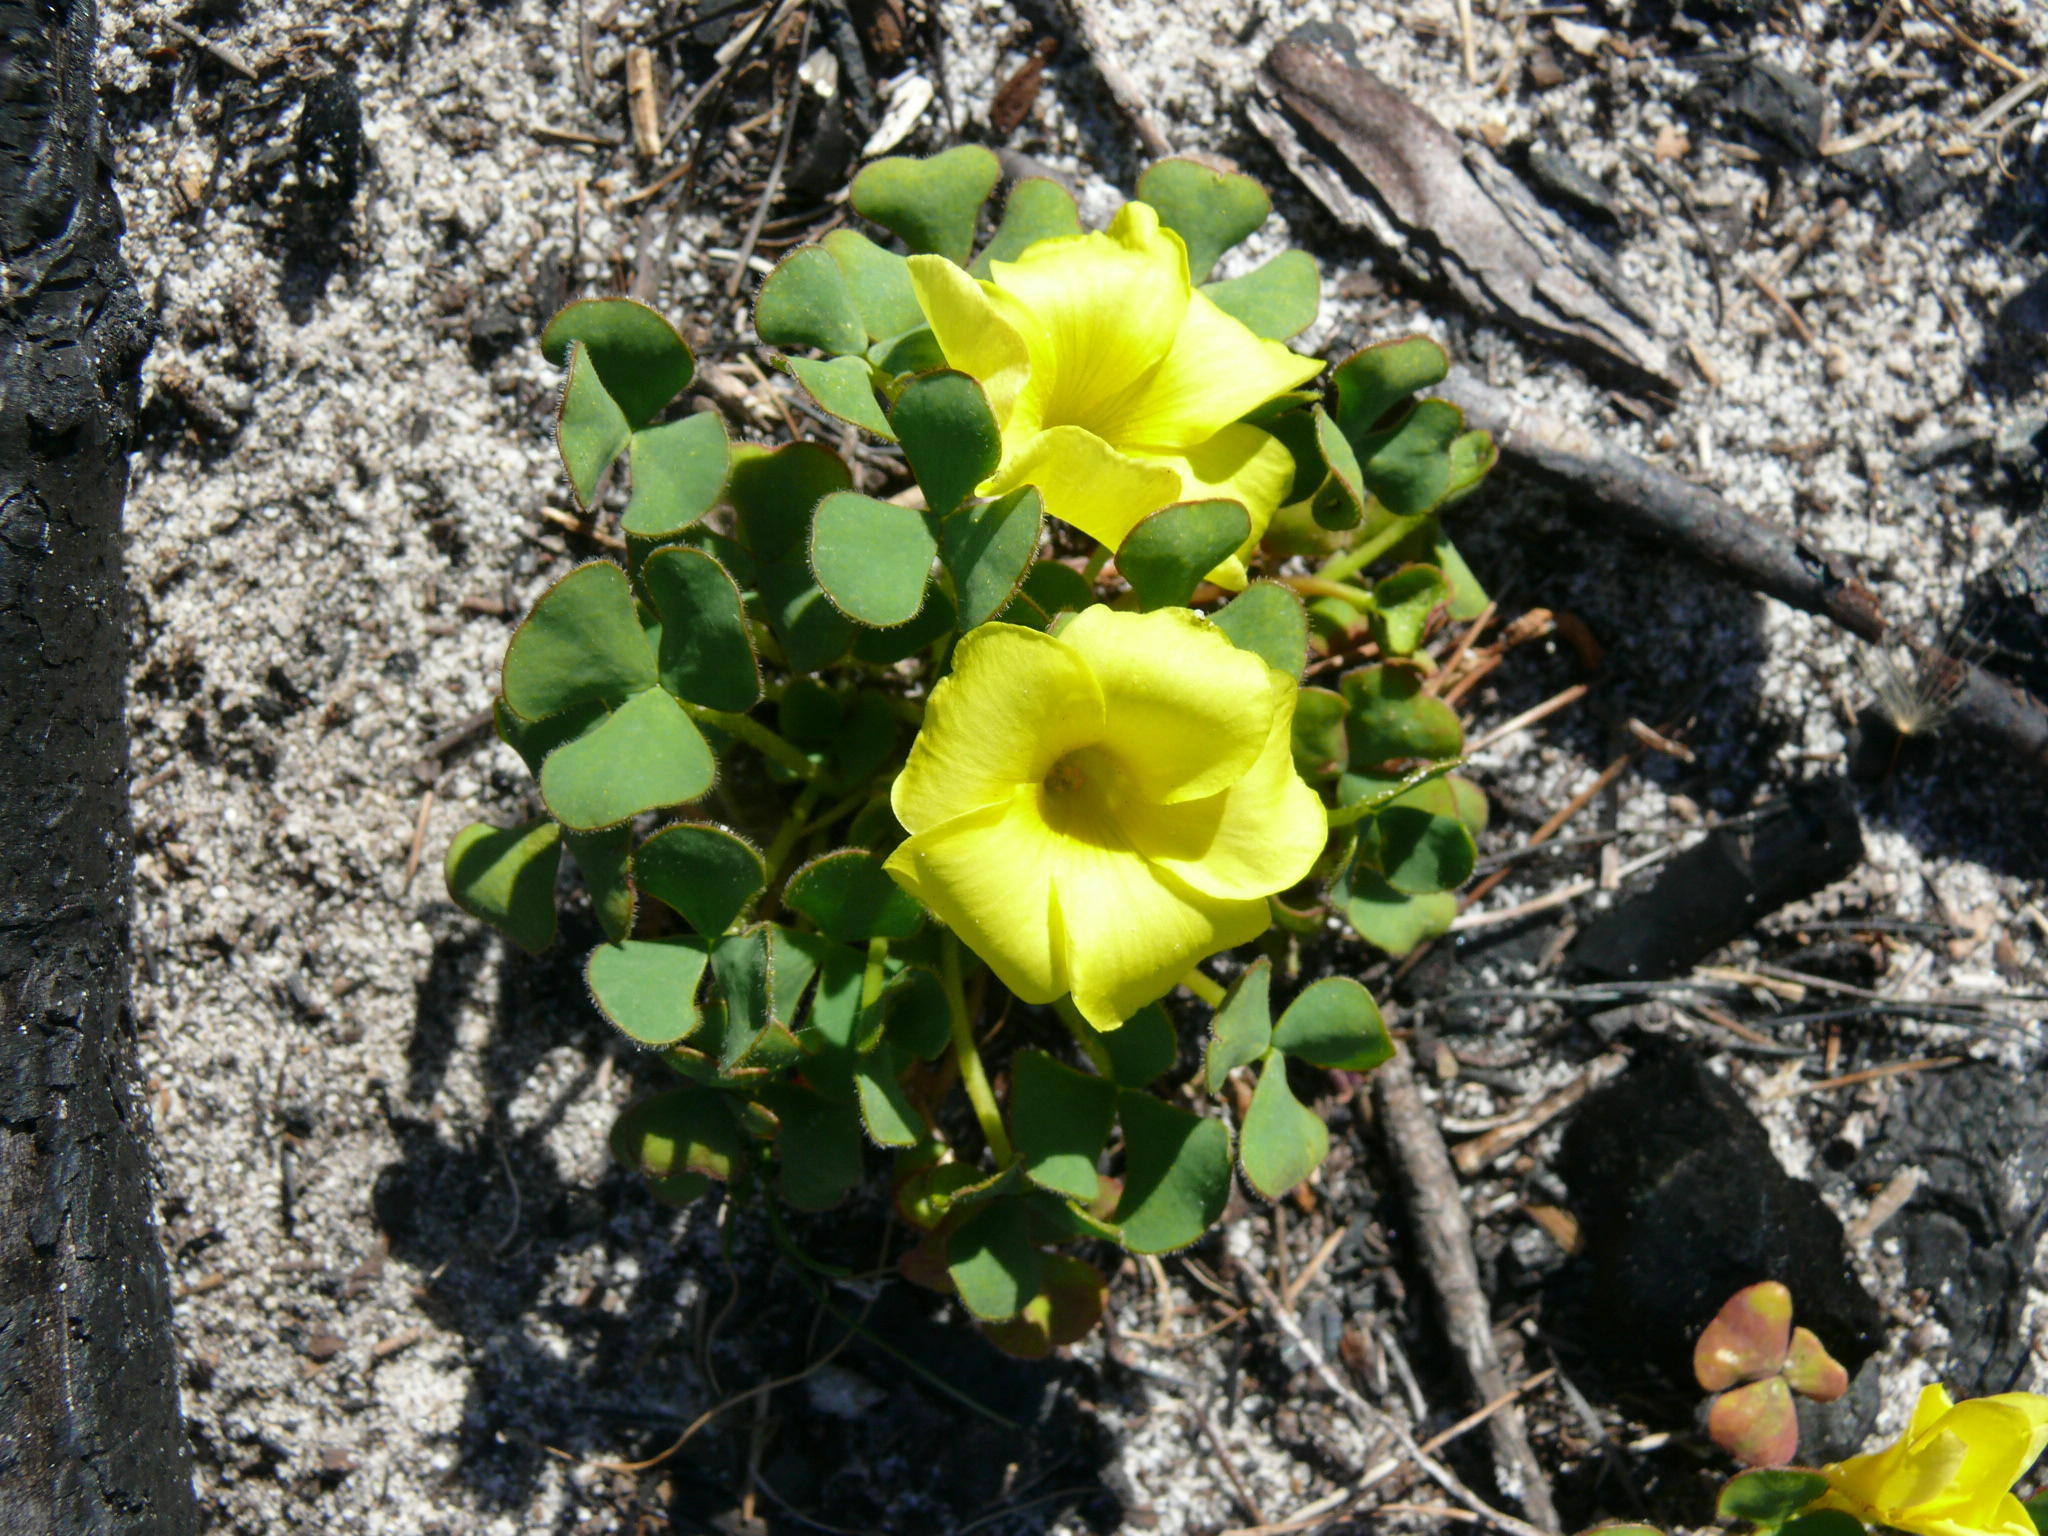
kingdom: Plantae
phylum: Tracheophyta
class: Magnoliopsida
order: Oxalidales
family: Oxalidaceae
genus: Oxalis
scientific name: Oxalis luteola
